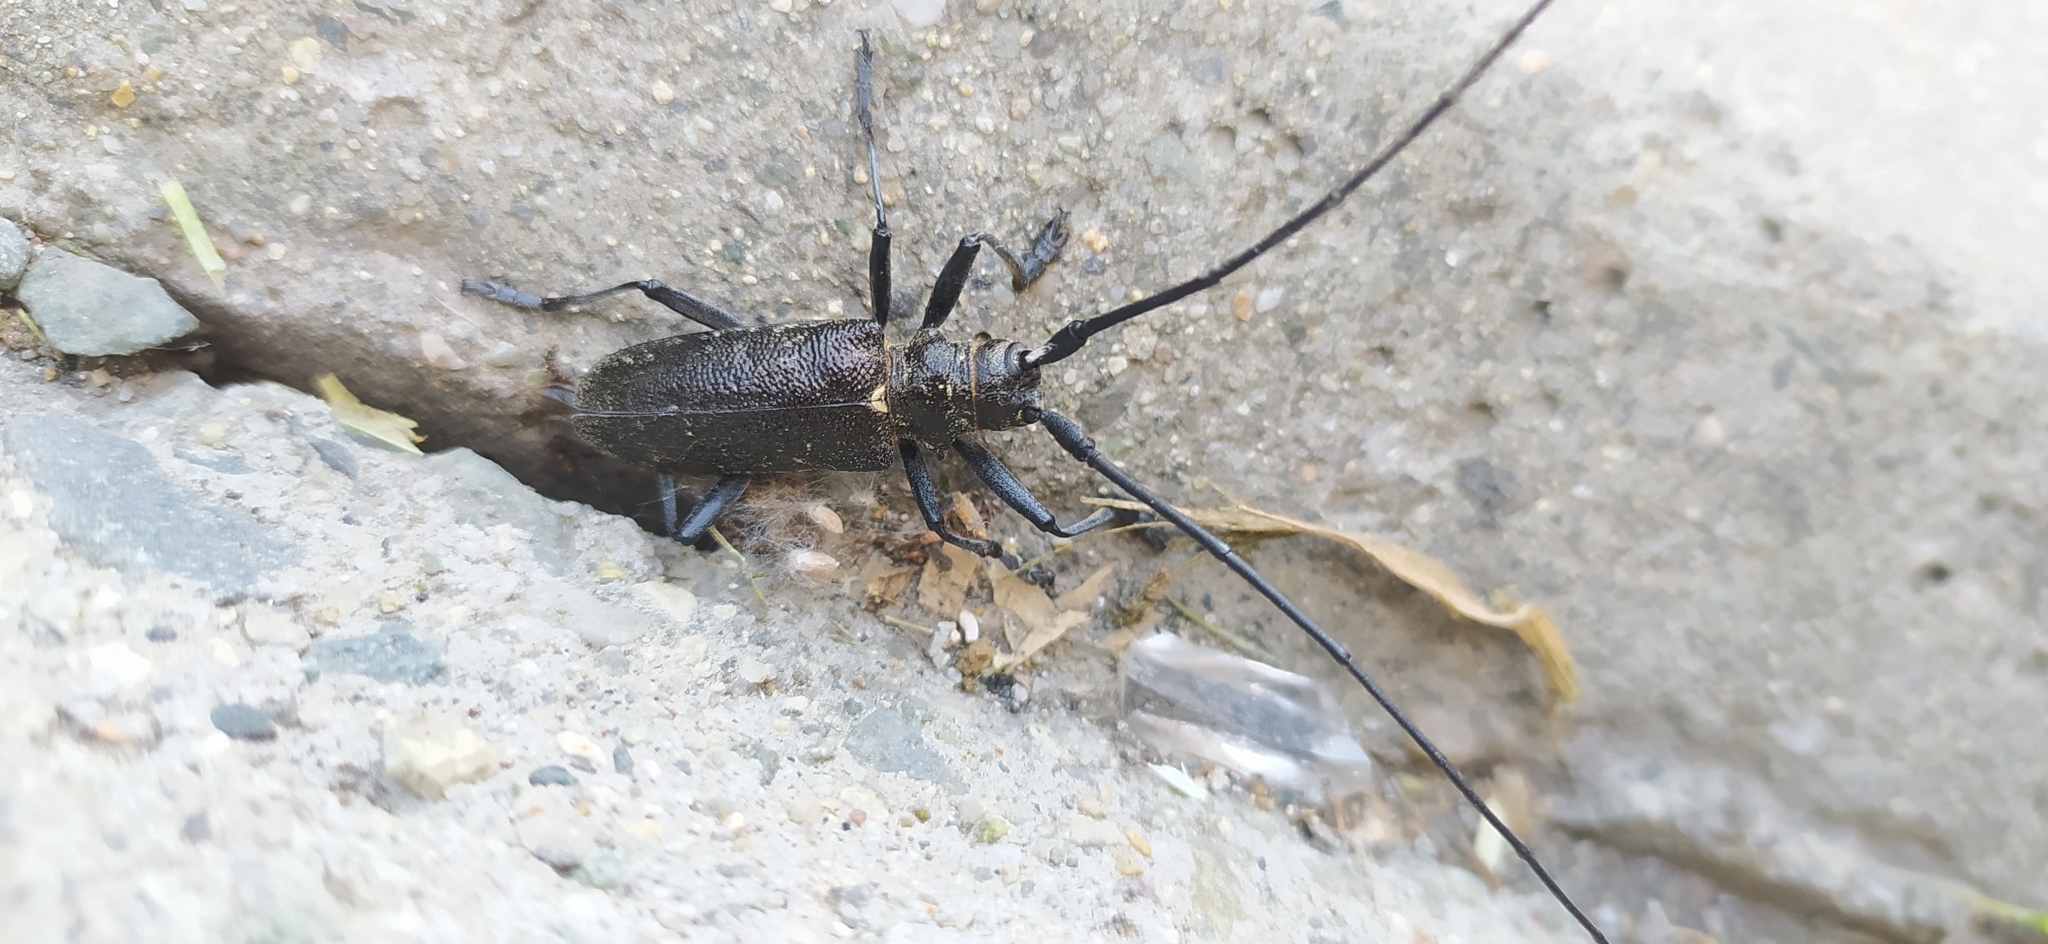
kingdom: Animalia
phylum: Arthropoda
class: Insecta
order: Coleoptera
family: Cerambycidae
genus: Monochamus
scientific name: Monochamus sutor
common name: Pine sawyer
